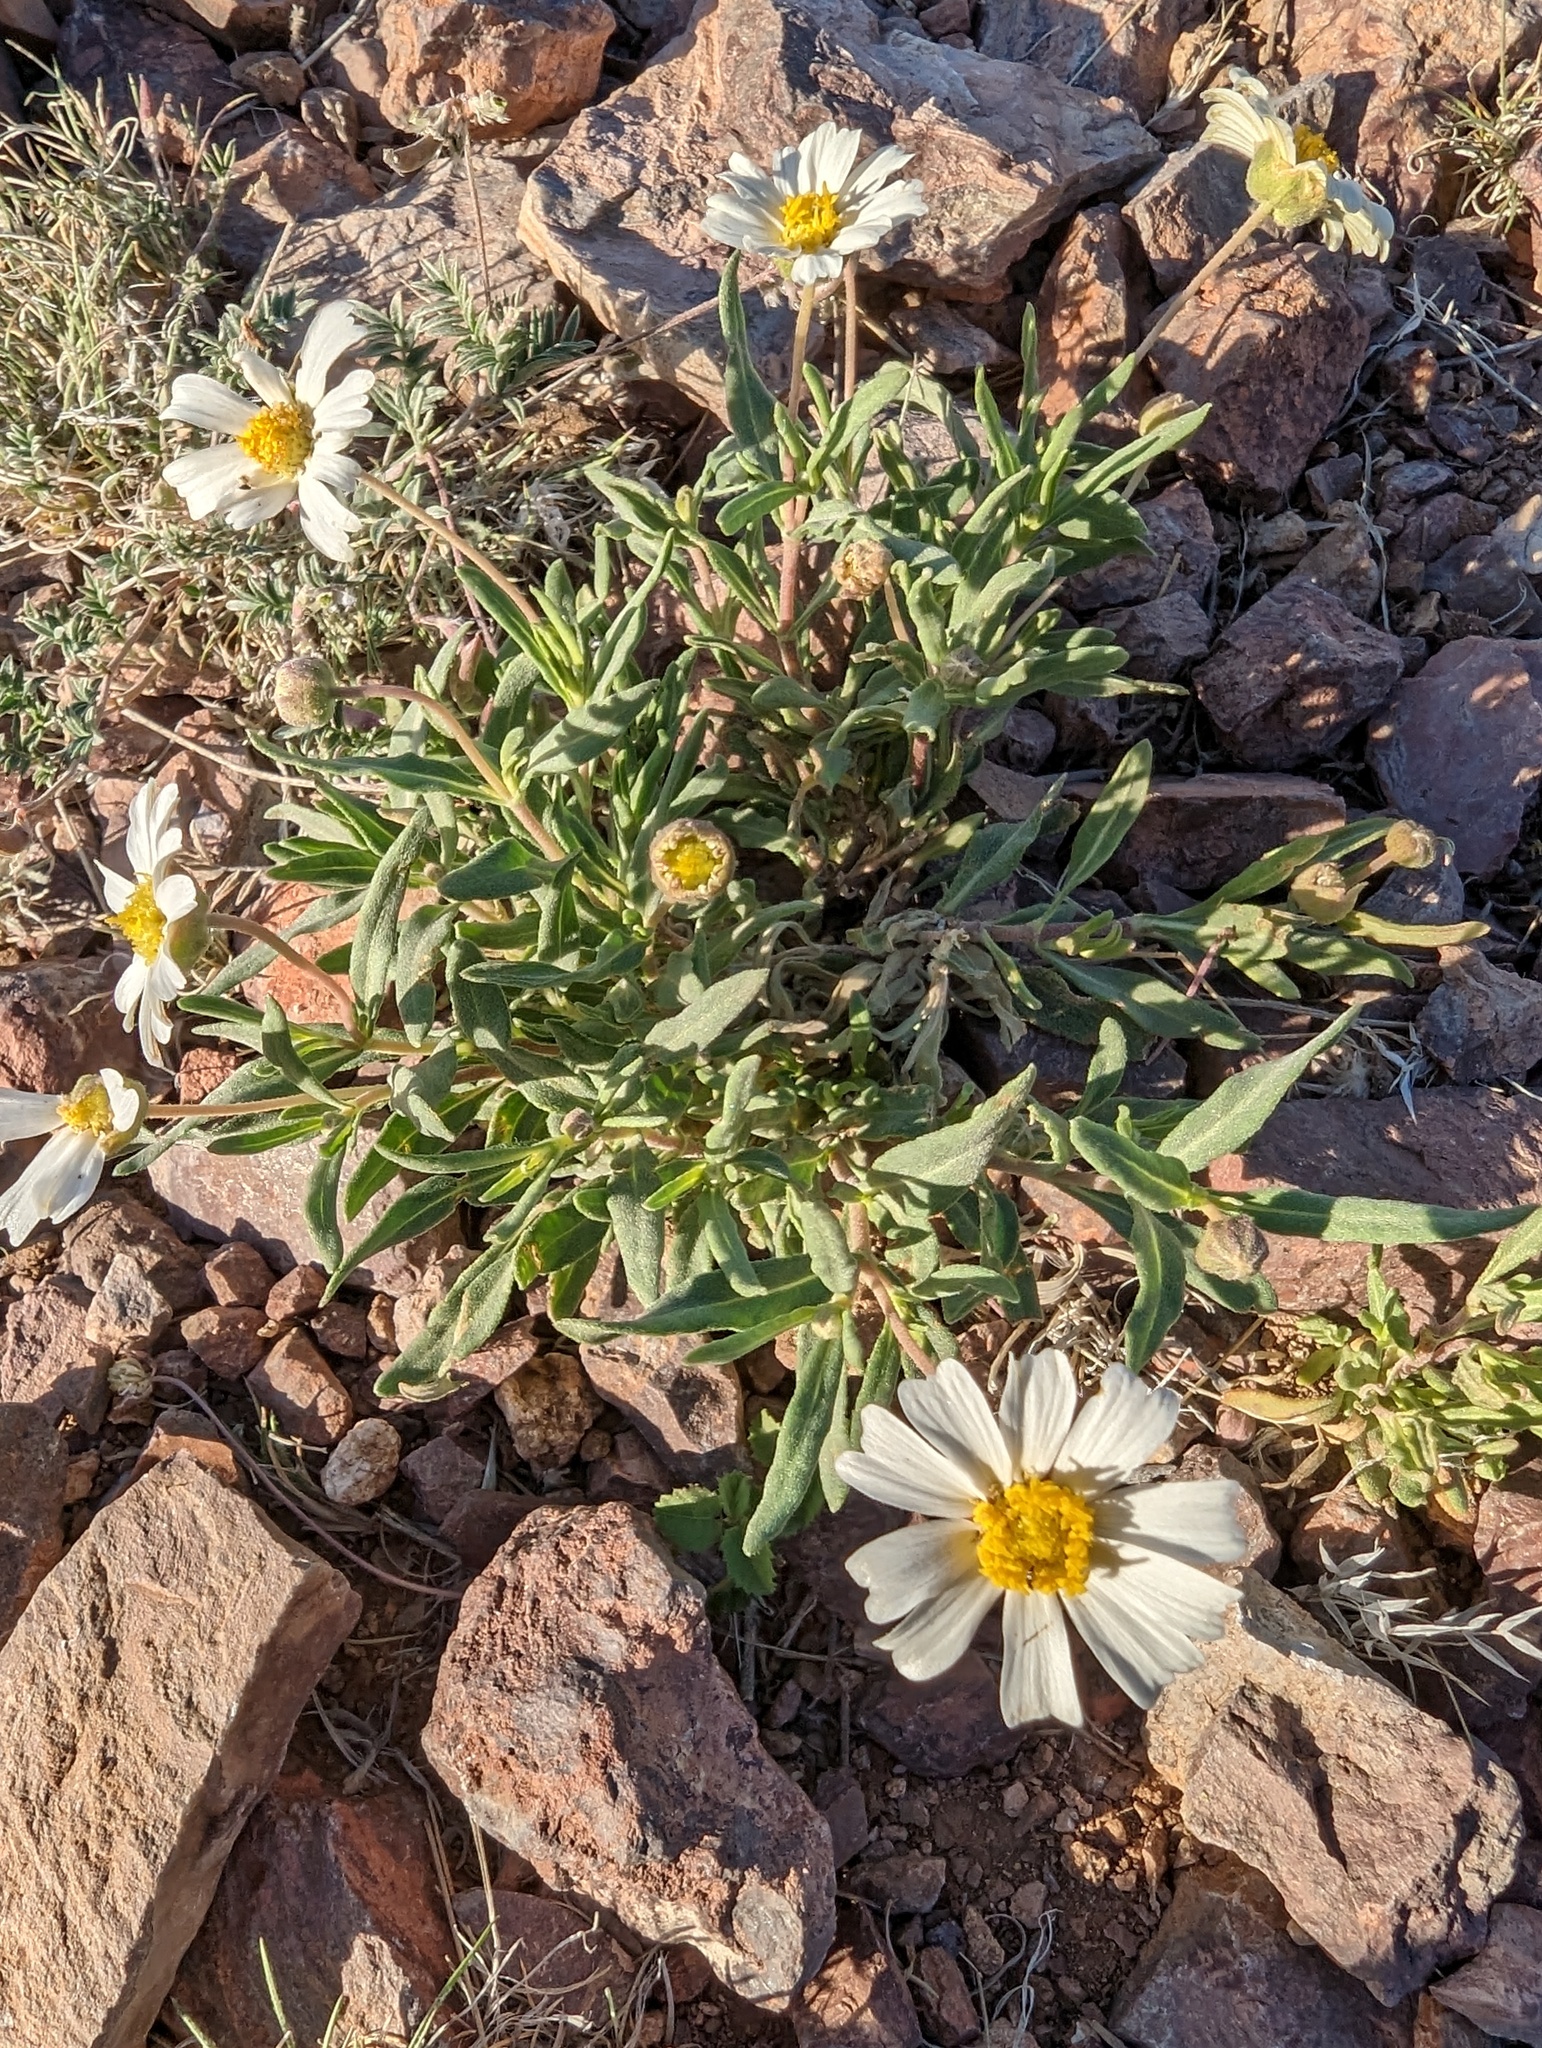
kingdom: Plantae
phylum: Tracheophyta
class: Magnoliopsida
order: Asterales
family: Asteraceae
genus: Melampodium
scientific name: Melampodium leucanthum
